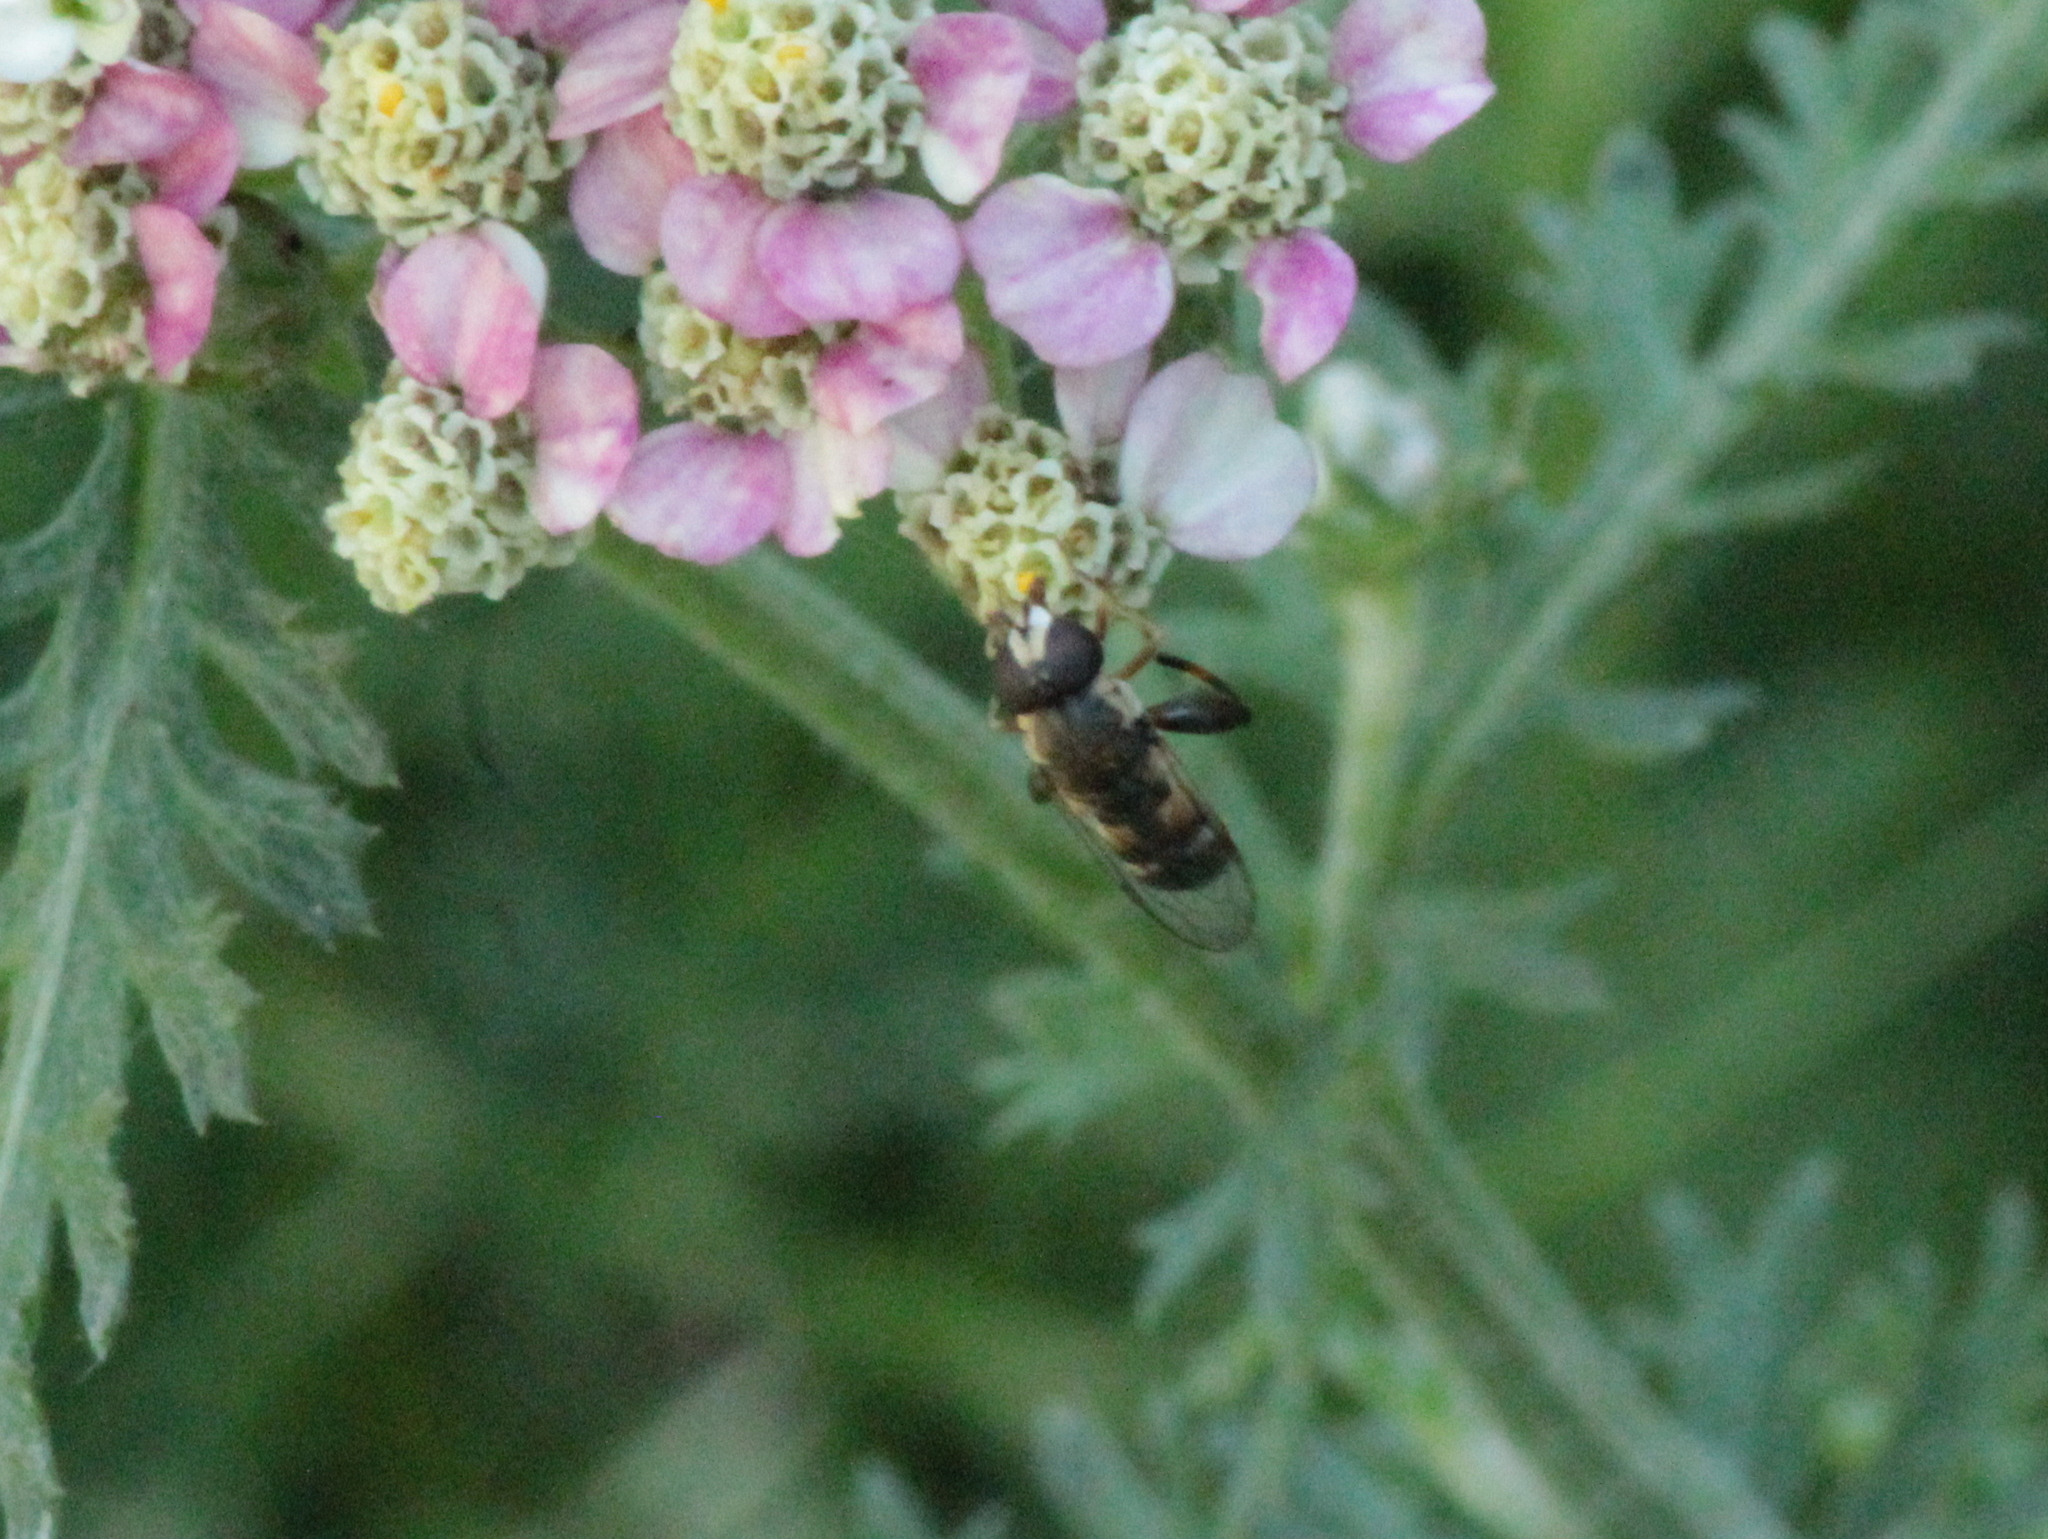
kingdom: Animalia
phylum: Arthropoda
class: Insecta
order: Diptera
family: Syrphidae
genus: Syritta
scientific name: Syritta pipiens
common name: Hover fly
